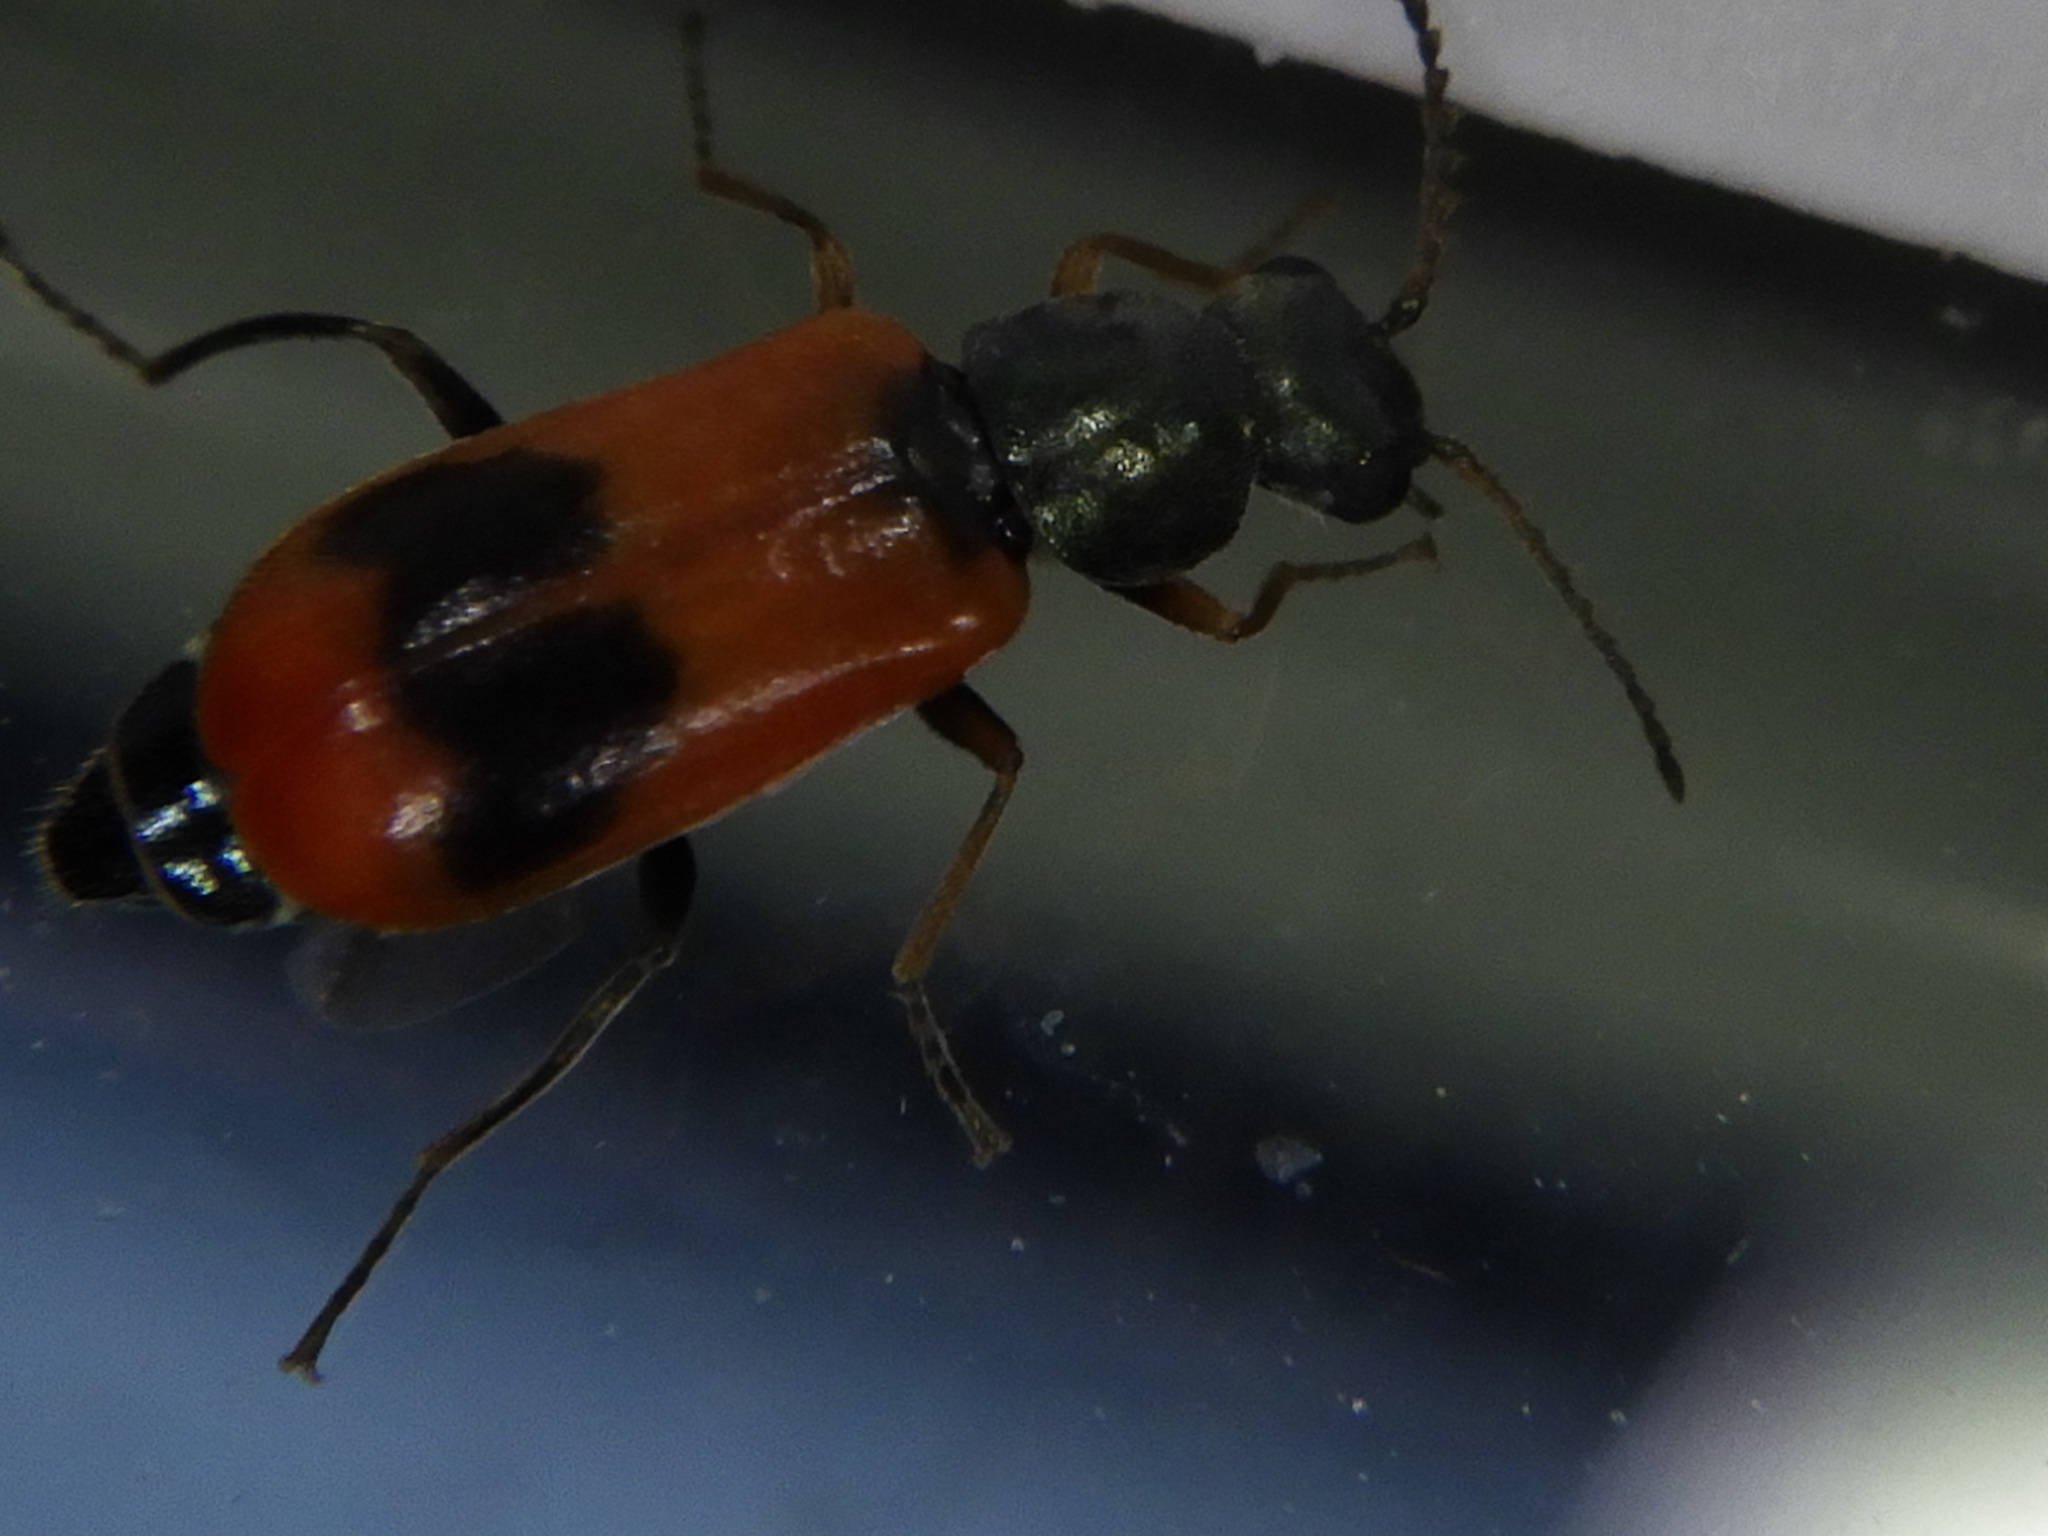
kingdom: Animalia
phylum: Arthropoda
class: Insecta
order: Coleoptera
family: Melyridae
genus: Anthocomus
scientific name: Anthocomus equestris
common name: Black-banded soft-winged flower beetle
